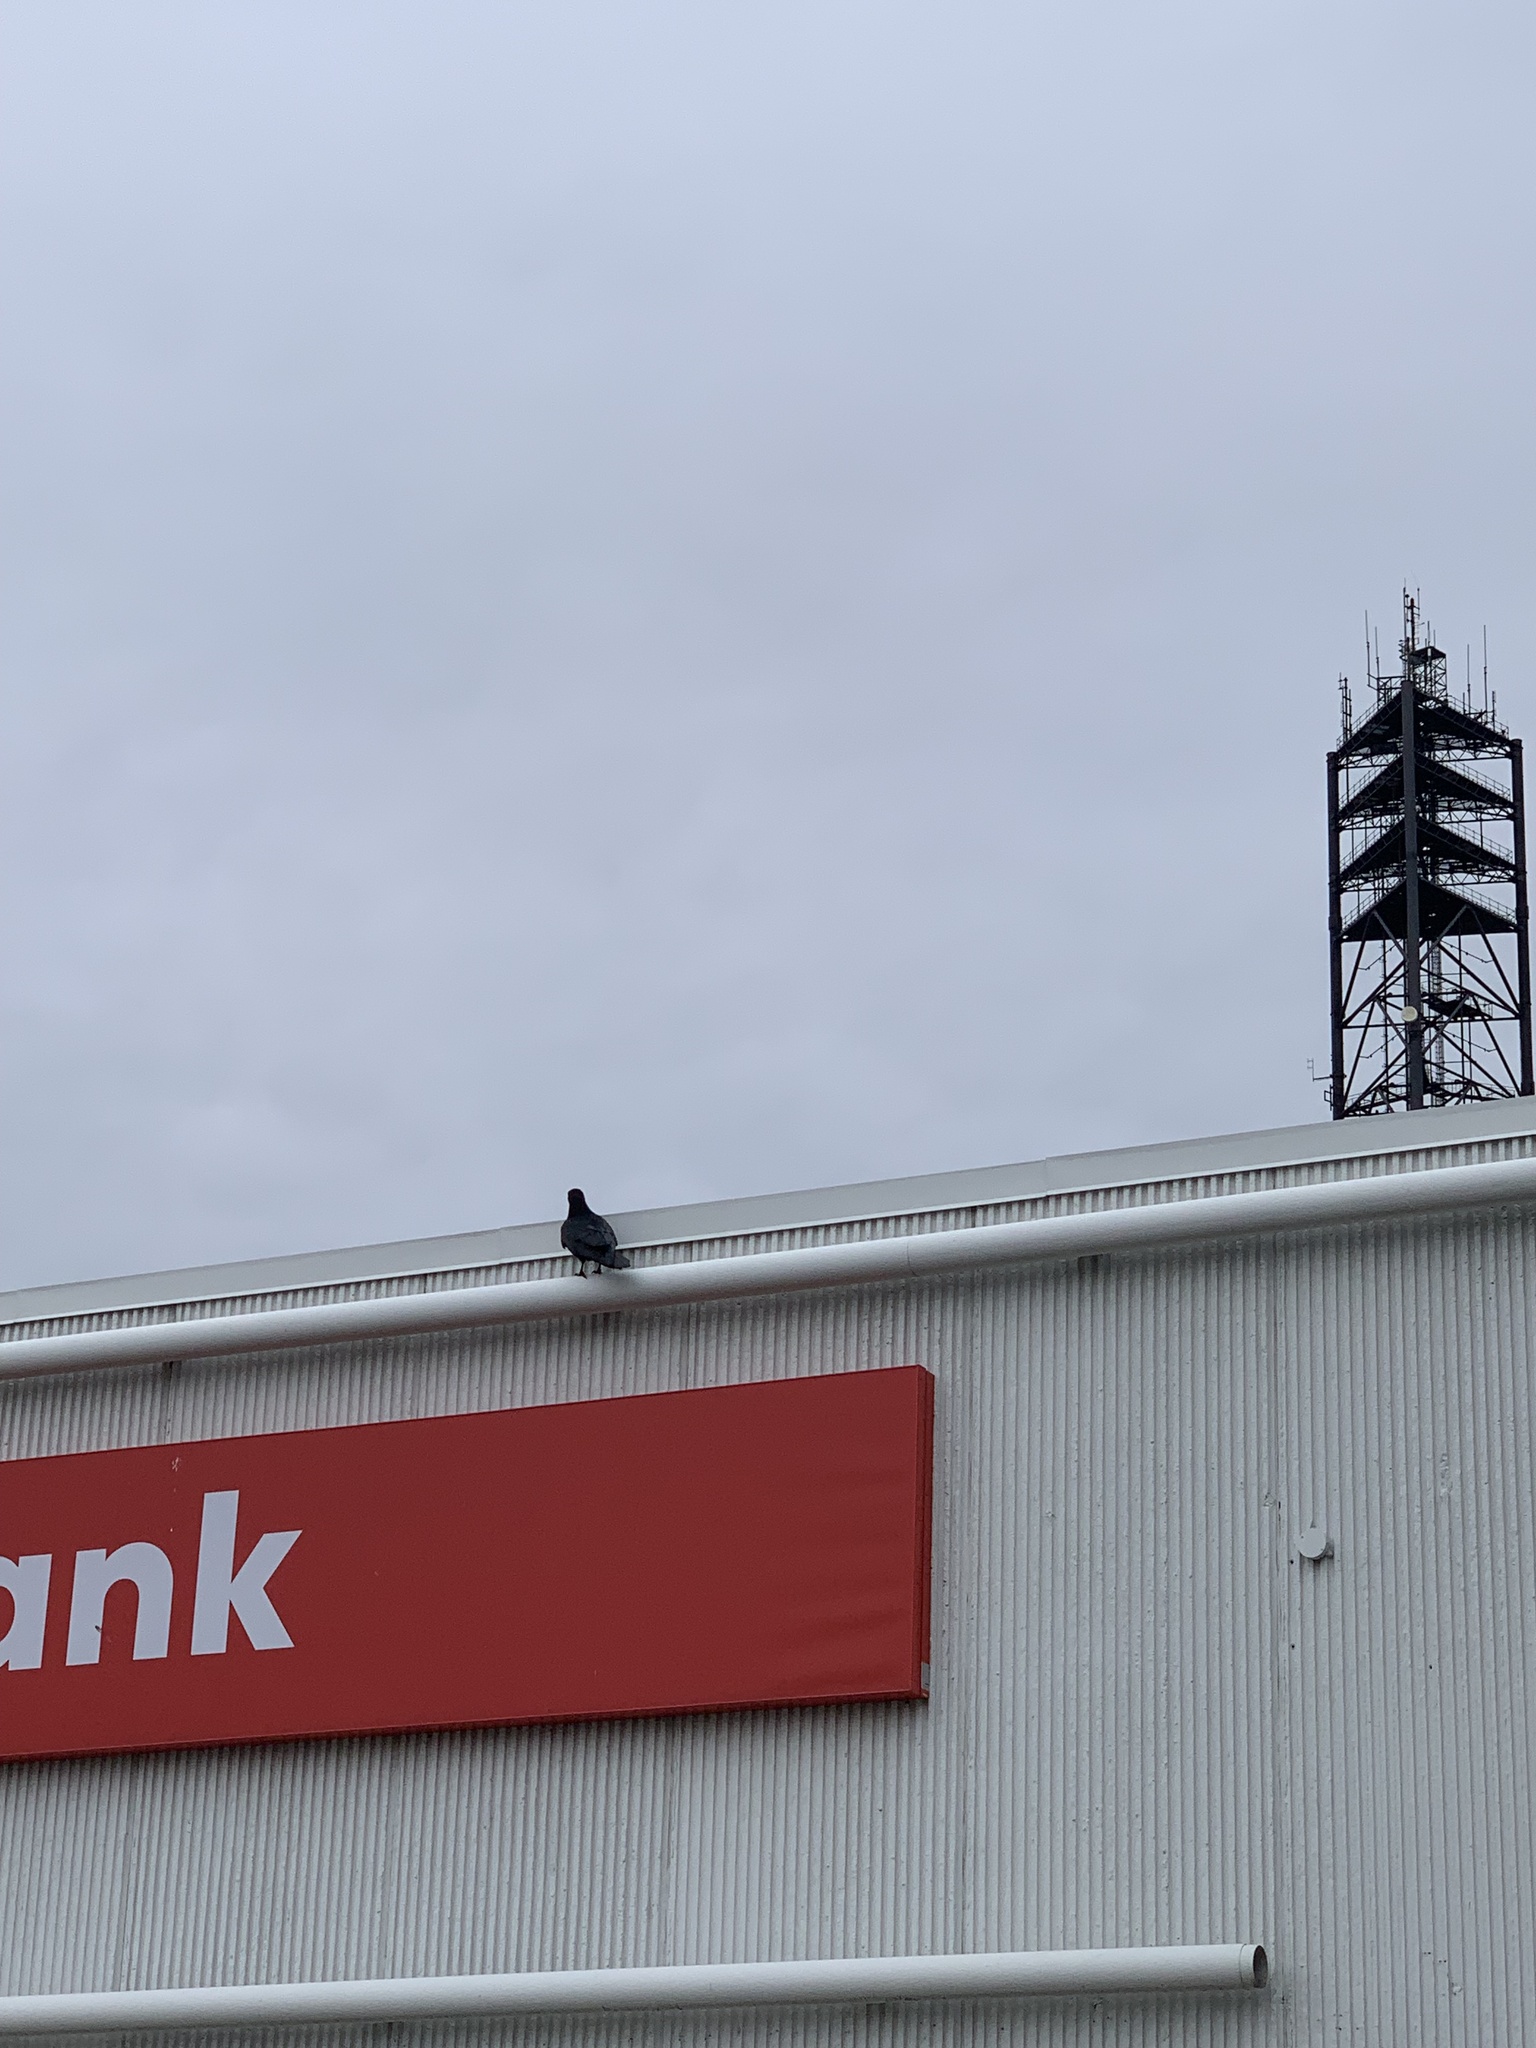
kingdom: Animalia
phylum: Chordata
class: Aves
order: Passeriformes
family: Corvidae
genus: Corvus
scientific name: Corvus corax
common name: Common raven
